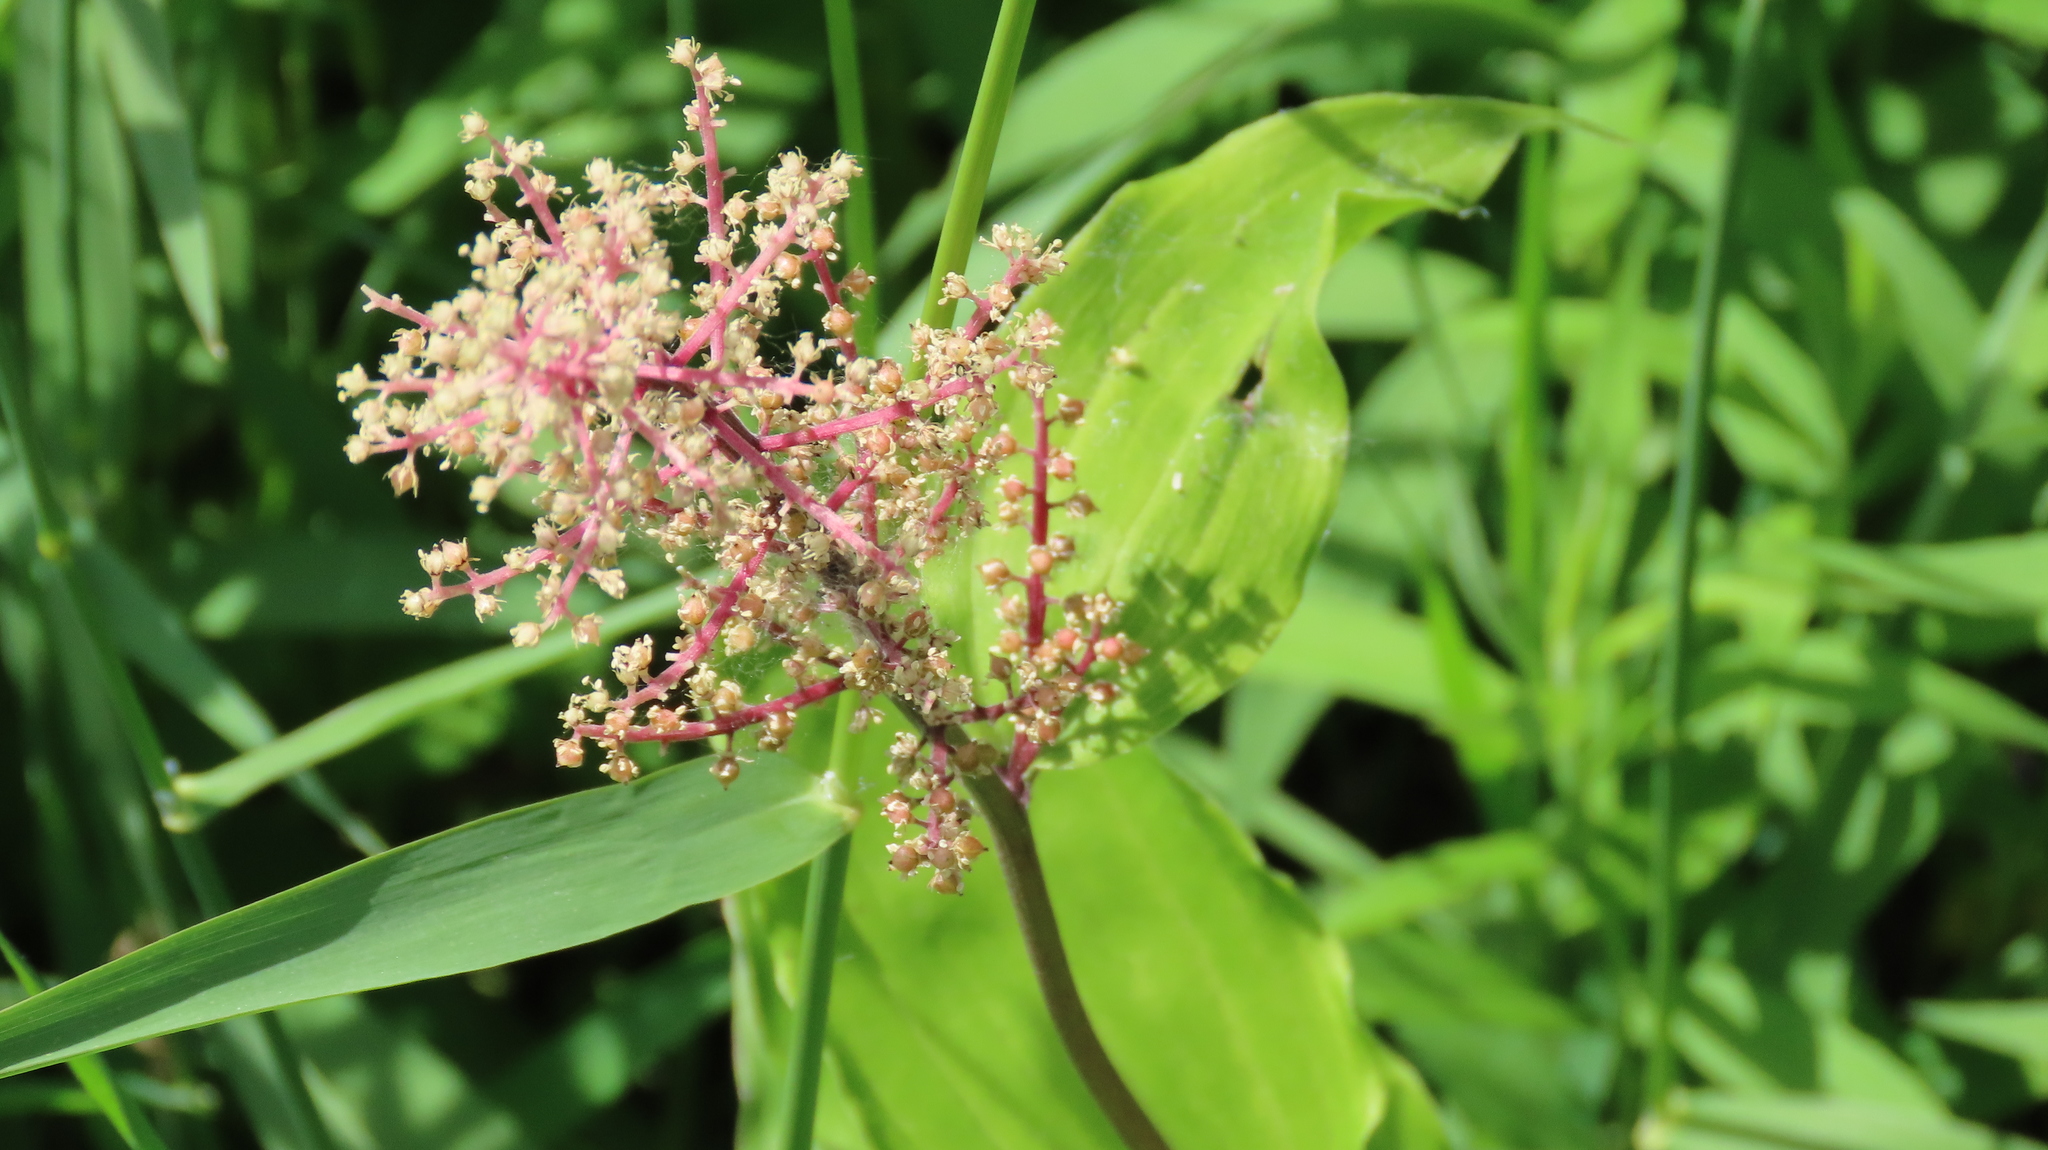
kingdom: Plantae
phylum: Tracheophyta
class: Liliopsida
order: Asparagales
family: Asparagaceae
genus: Maianthemum
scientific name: Maianthemum racemosum
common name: False spikenard
